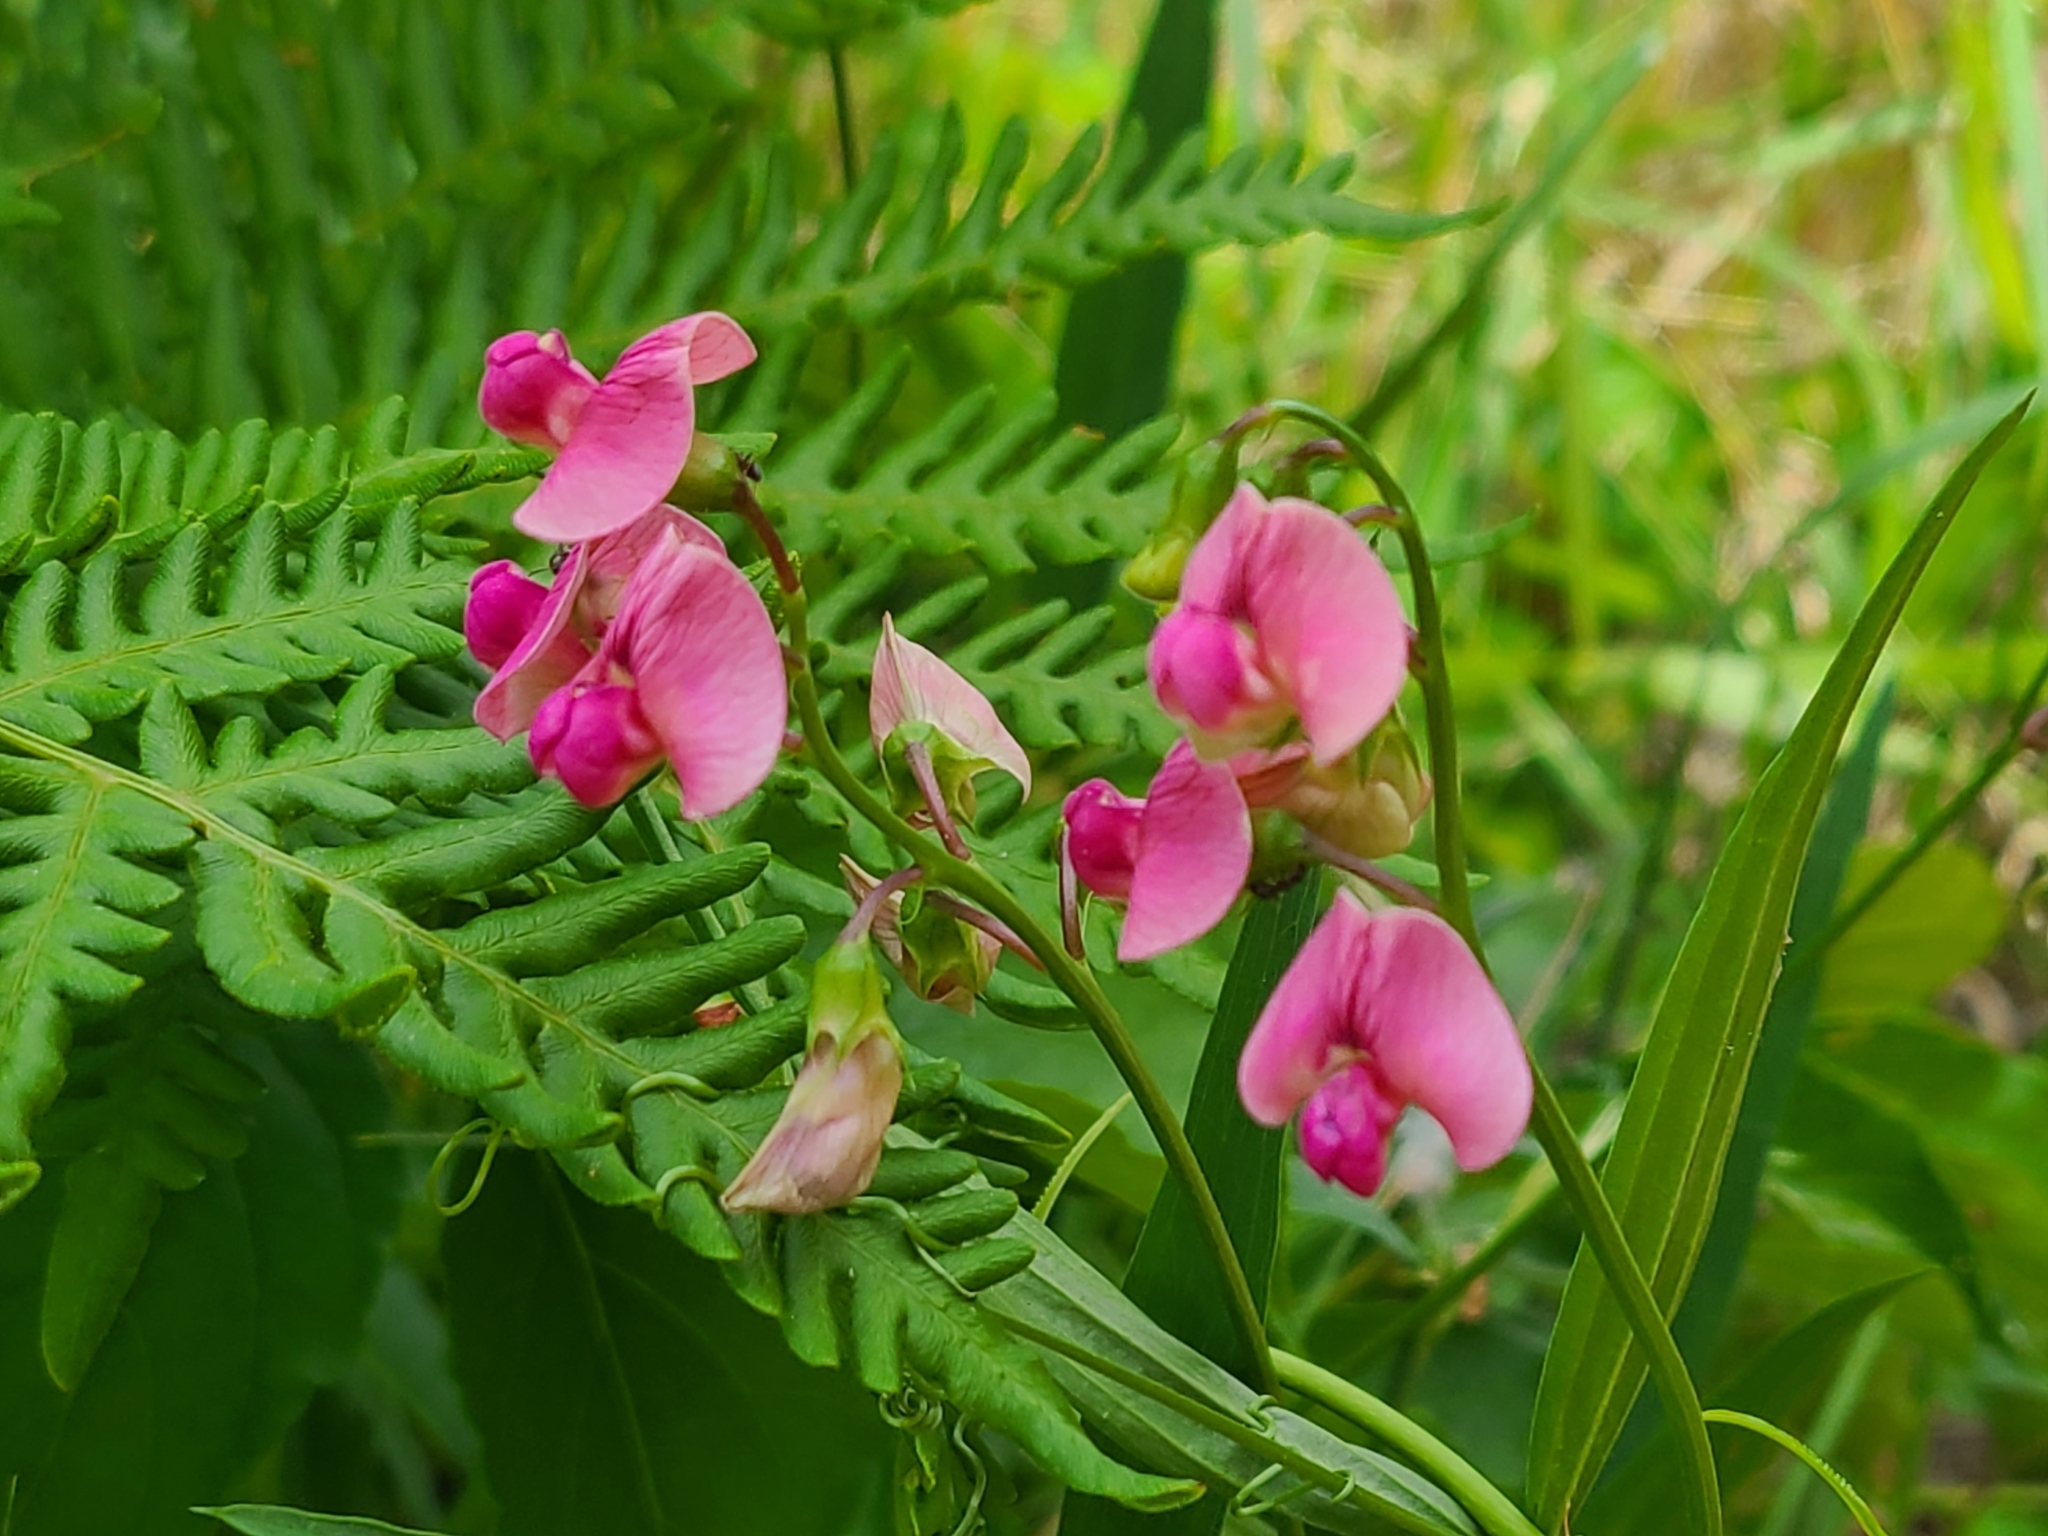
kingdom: Plantae
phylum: Tracheophyta
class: Magnoliopsida
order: Fabales
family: Fabaceae
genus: Lathyrus
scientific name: Lathyrus sylvestris
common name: Flat pea
